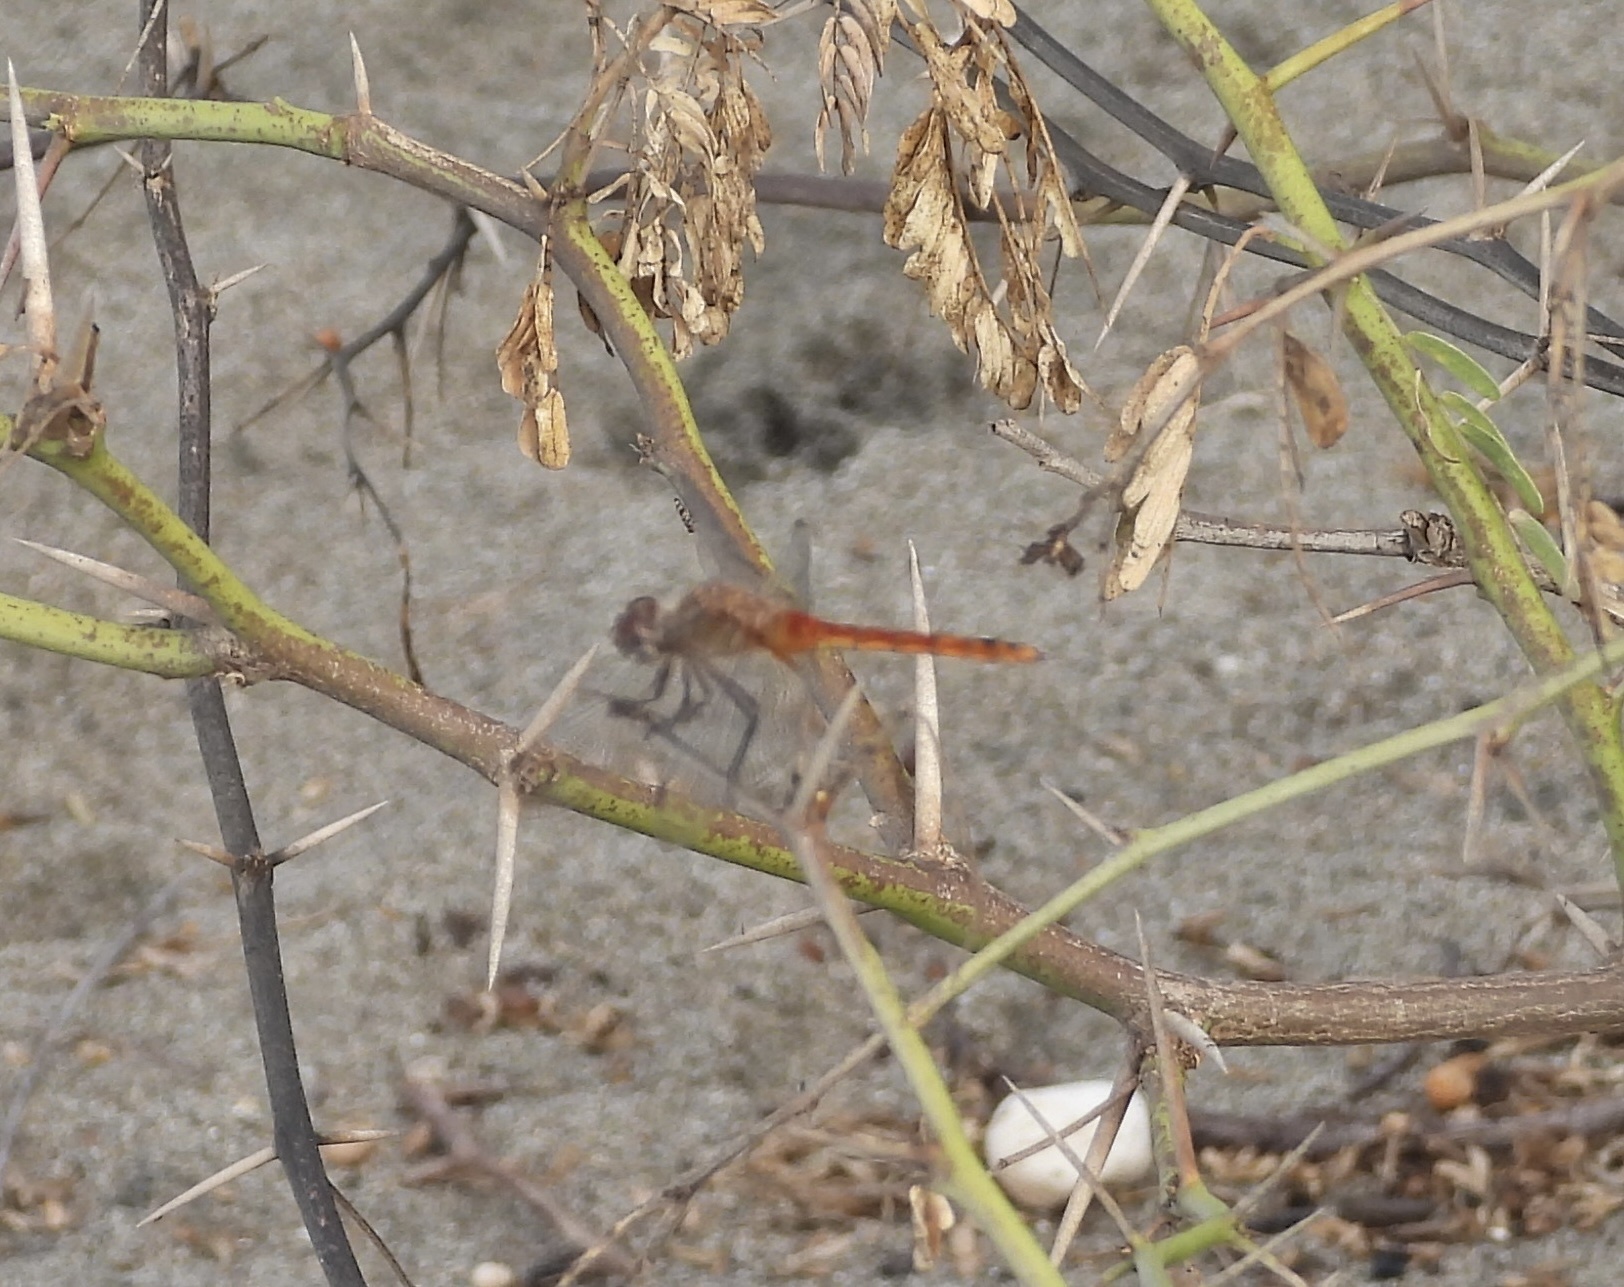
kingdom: Animalia
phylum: Arthropoda
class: Insecta
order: Odonata
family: Libellulidae
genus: Brachymesia
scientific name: Brachymesia furcata
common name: Red-taled pennant
